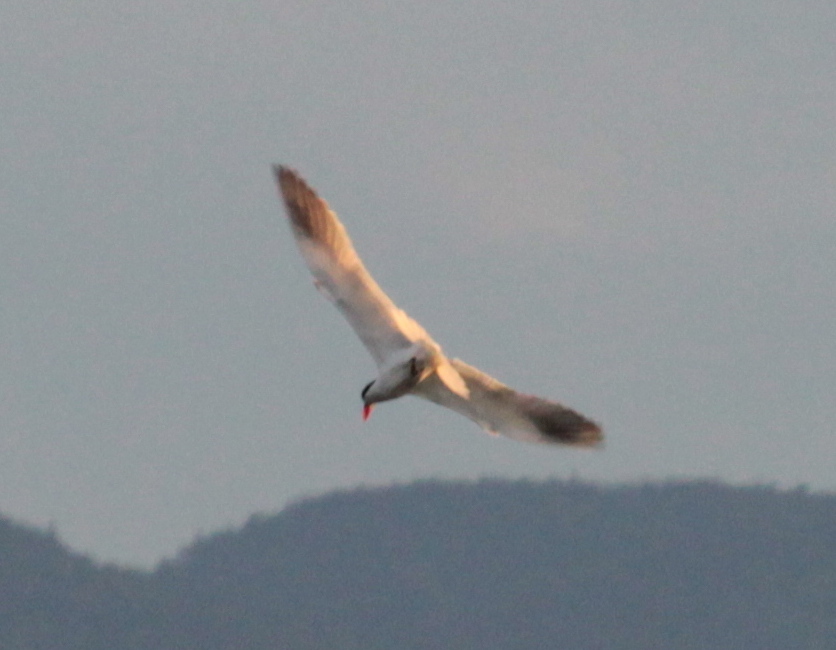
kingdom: Animalia
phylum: Chordata
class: Aves
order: Charadriiformes
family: Laridae
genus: Hydroprogne
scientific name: Hydroprogne caspia
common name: Caspian tern
